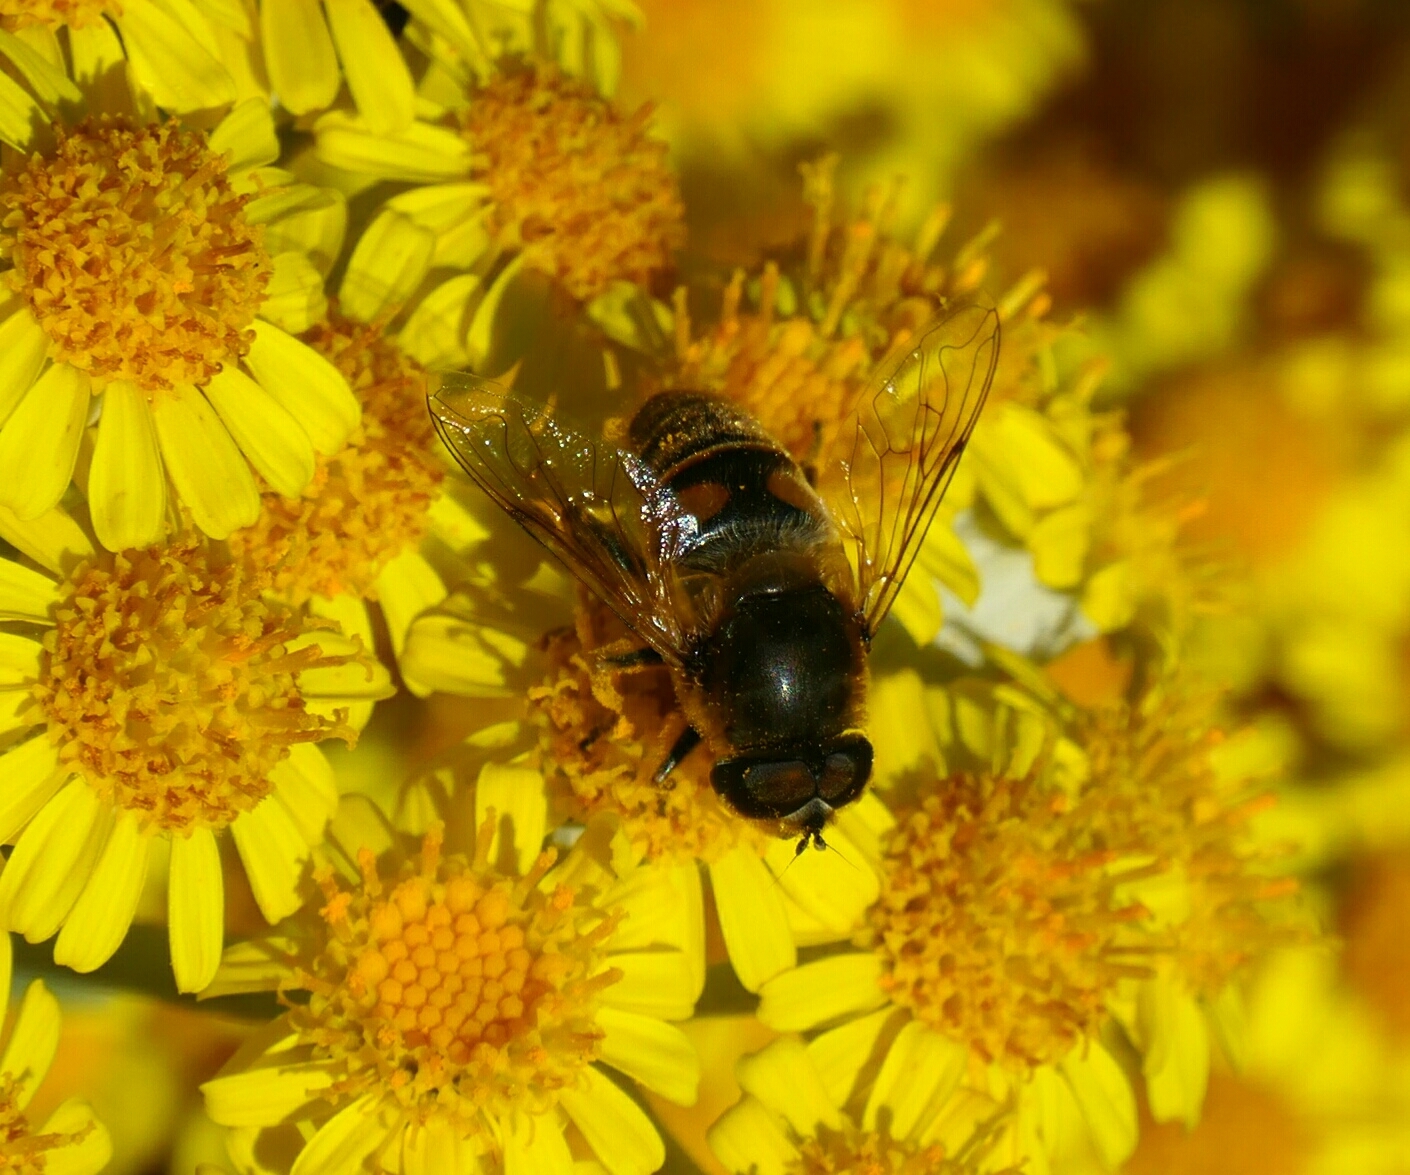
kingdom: Animalia
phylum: Arthropoda
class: Insecta
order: Diptera
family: Syrphidae
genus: Eristalis
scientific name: Eristalis tenax
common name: Drone fly
